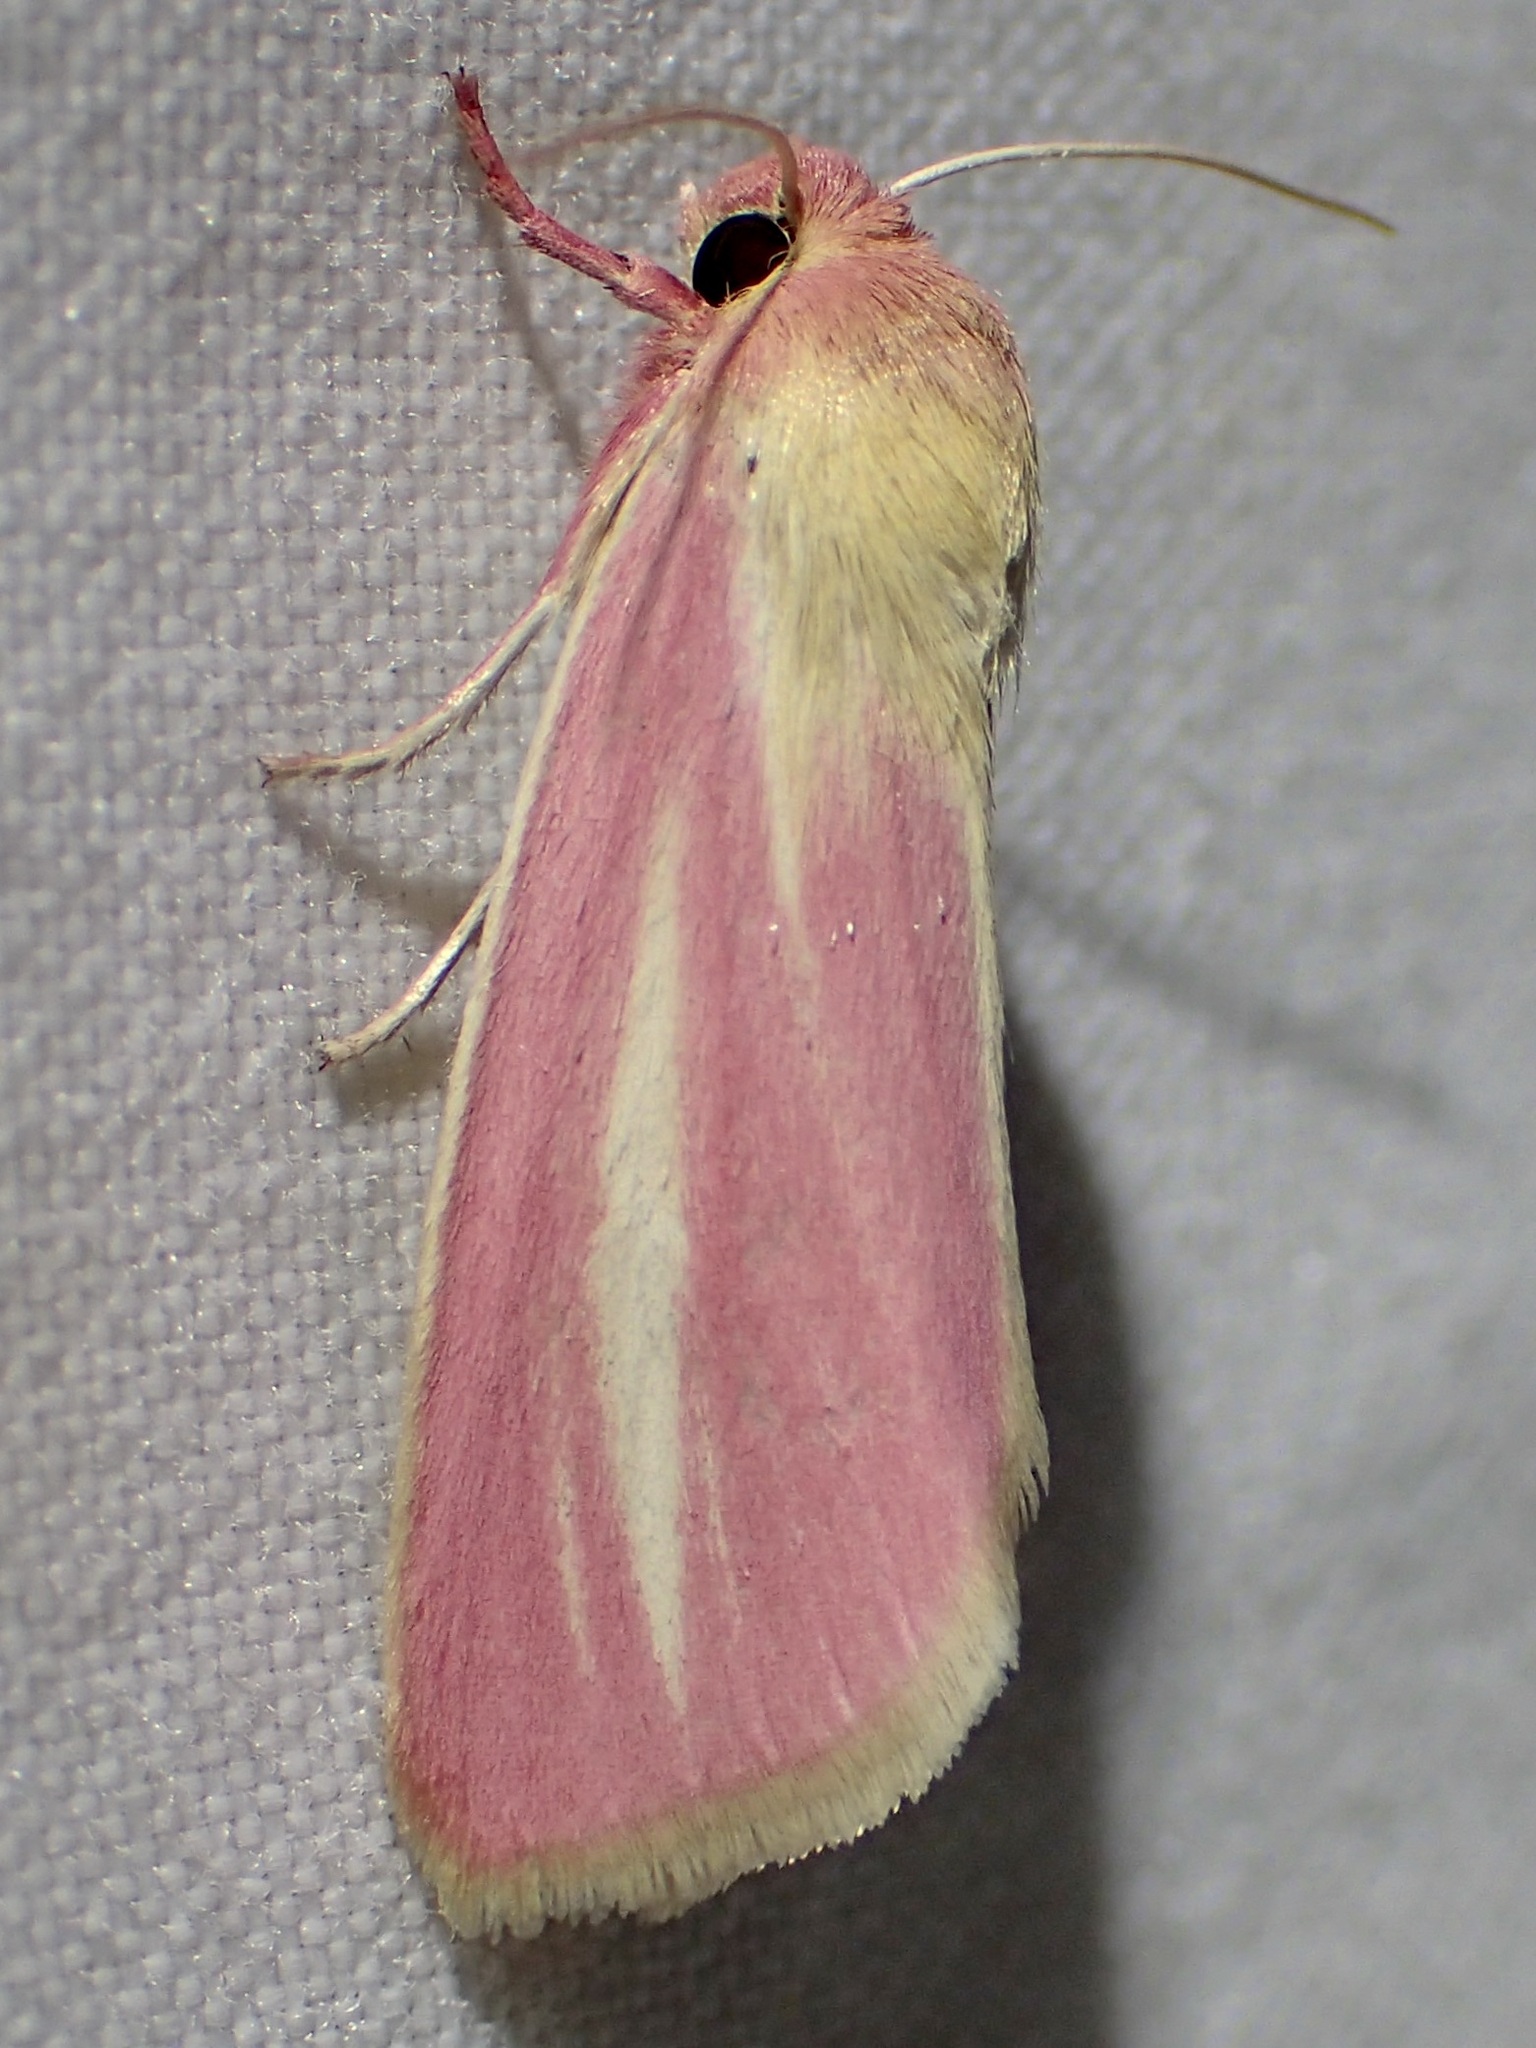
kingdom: Animalia
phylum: Arthropoda
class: Insecta
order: Lepidoptera
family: Noctuidae
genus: Heliocheilus
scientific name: Heliocheilus julia
